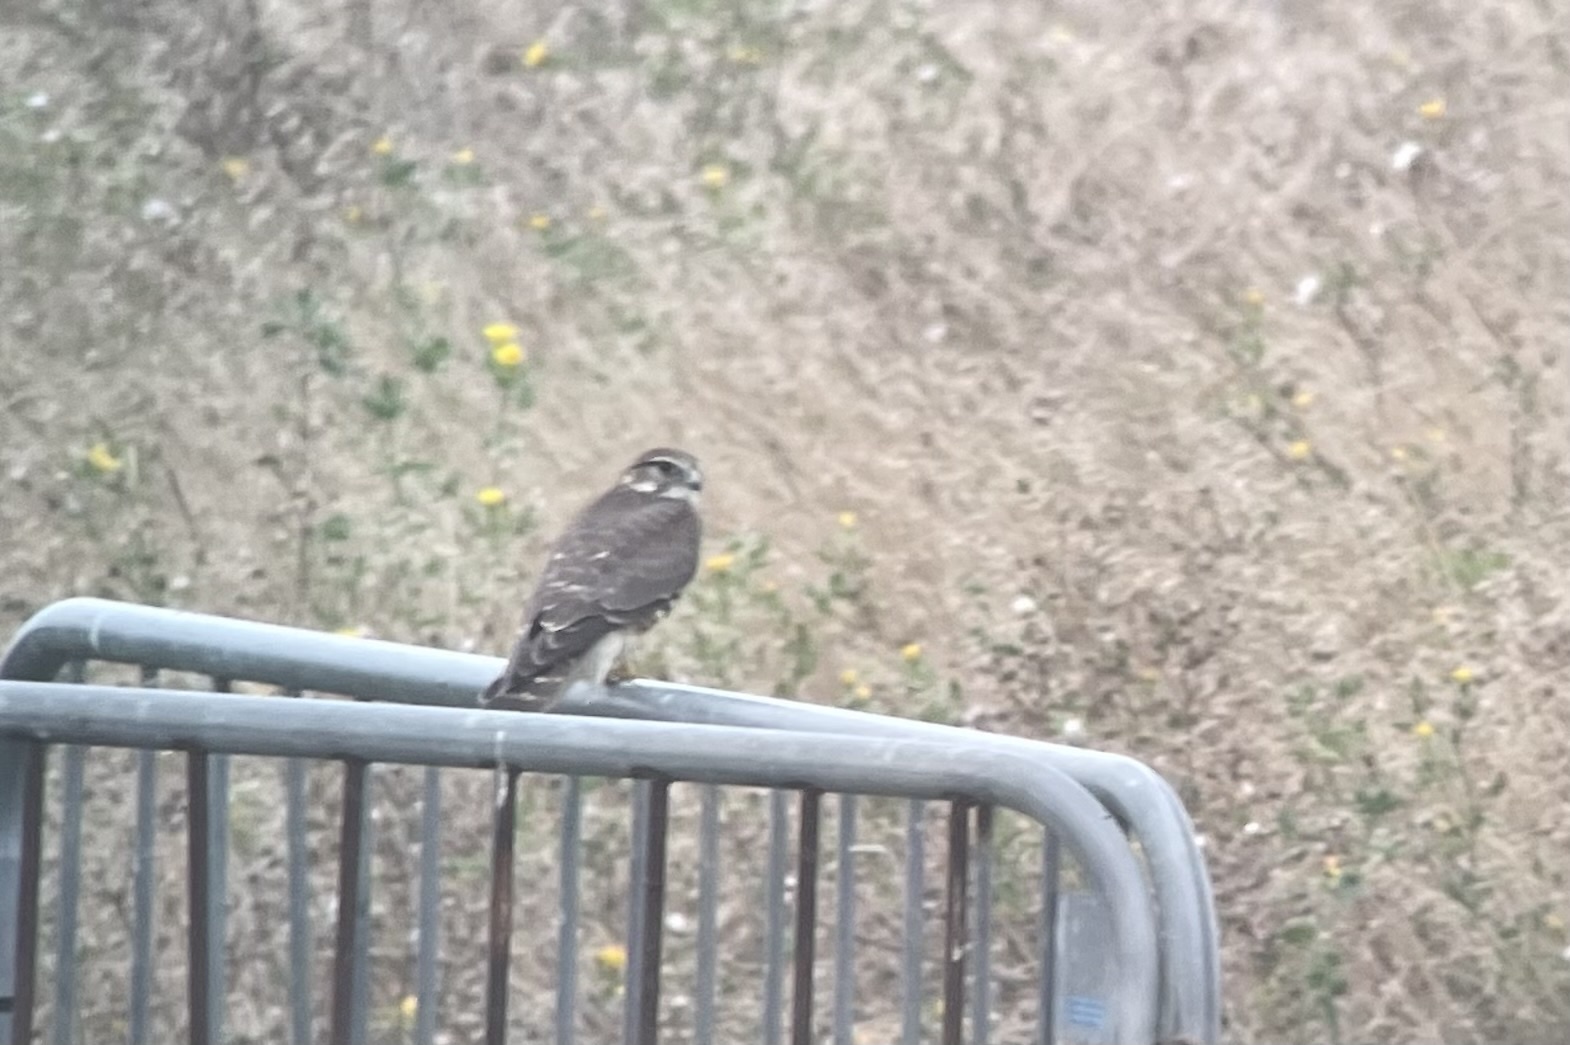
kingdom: Animalia
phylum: Chordata
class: Aves
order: Falconiformes
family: Falconidae
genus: Falco
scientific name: Falco columbarius
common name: Merlin
